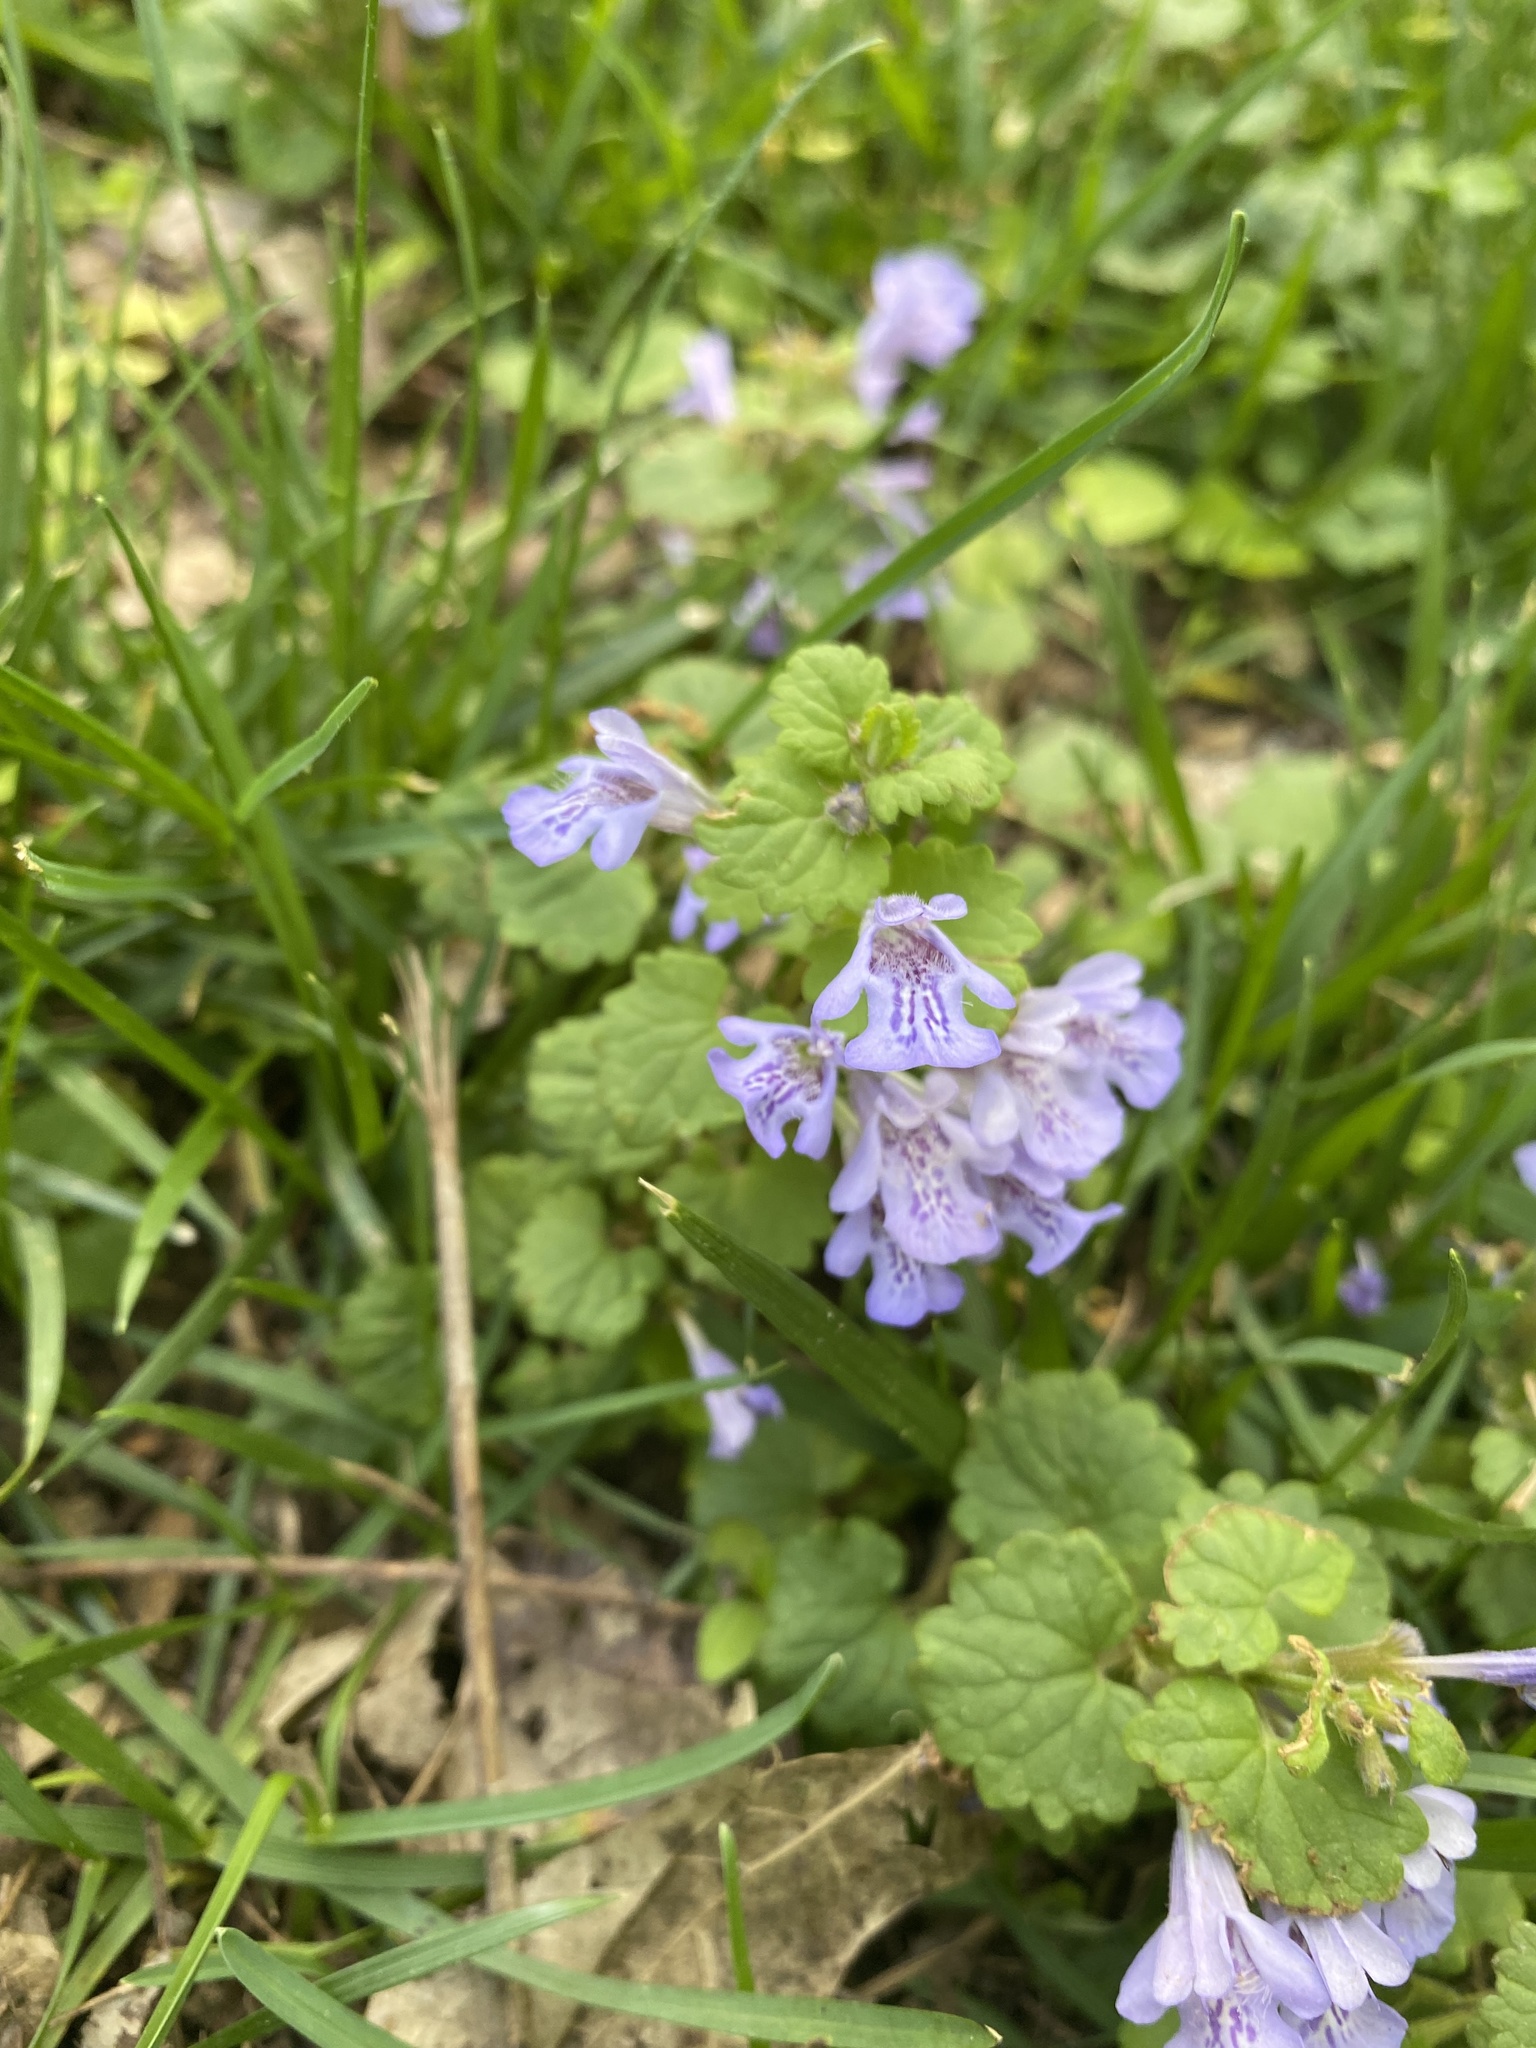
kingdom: Plantae
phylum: Tracheophyta
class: Magnoliopsida
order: Lamiales
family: Lamiaceae
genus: Glechoma
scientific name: Glechoma hederacea
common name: Ground ivy
